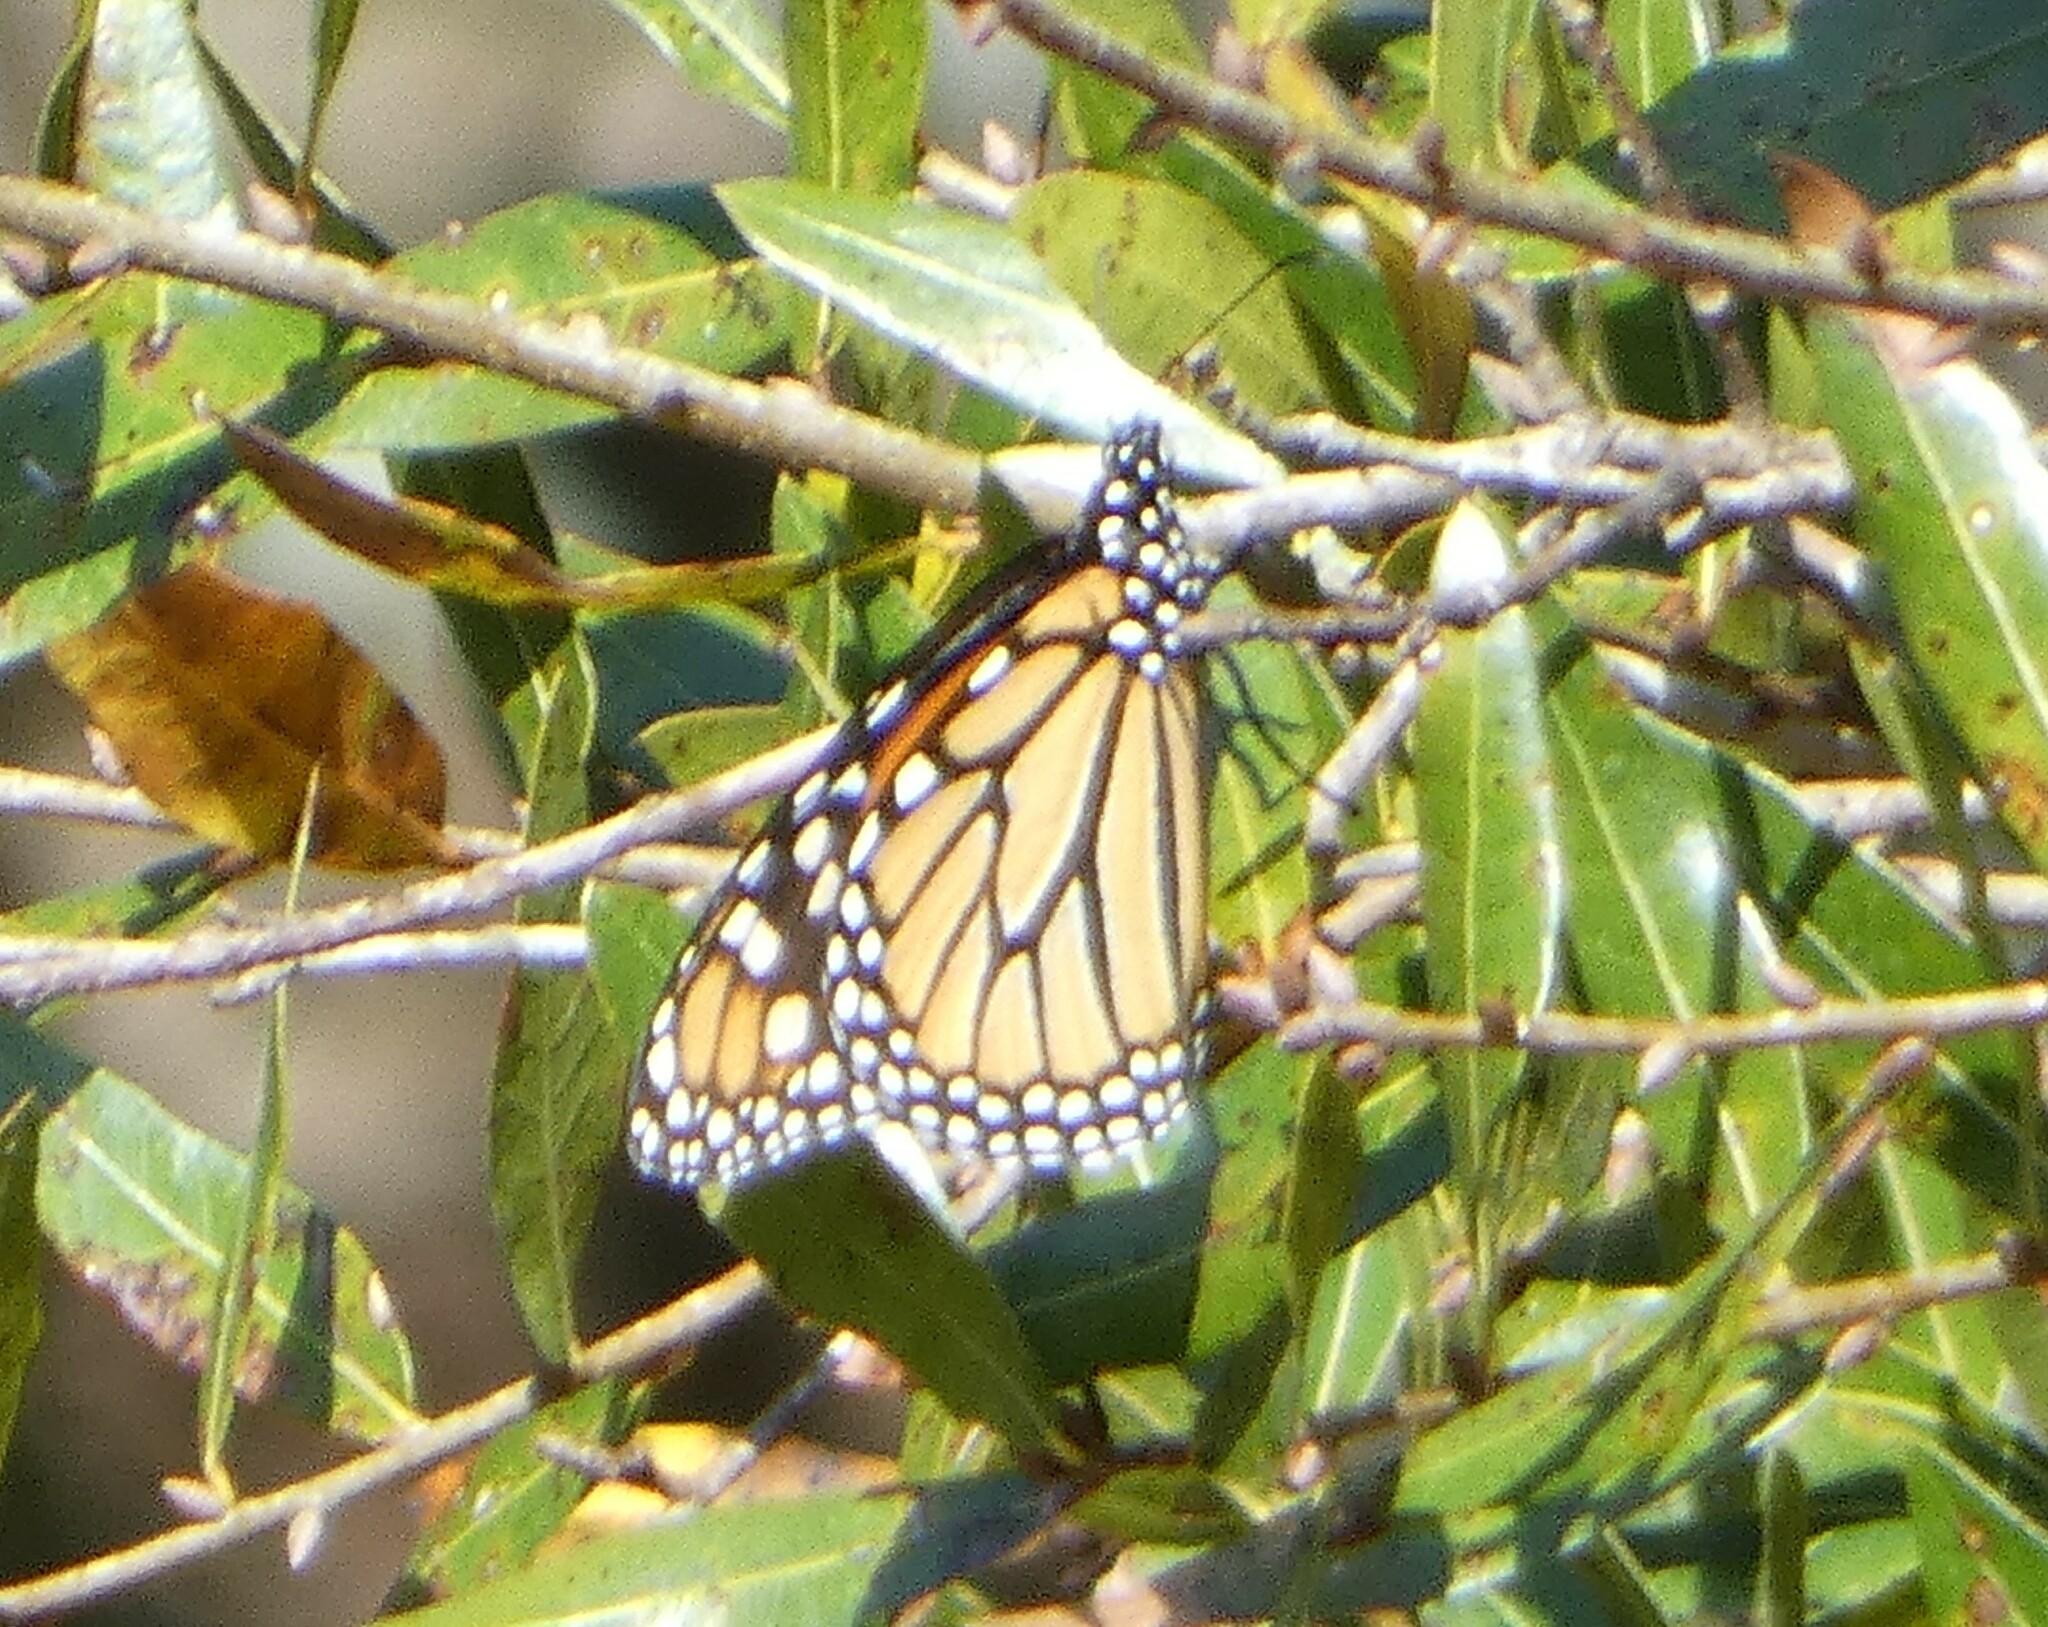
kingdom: Animalia
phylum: Arthropoda
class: Insecta
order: Lepidoptera
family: Nymphalidae
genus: Danaus
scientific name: Danaus plexippus
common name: Monarch
